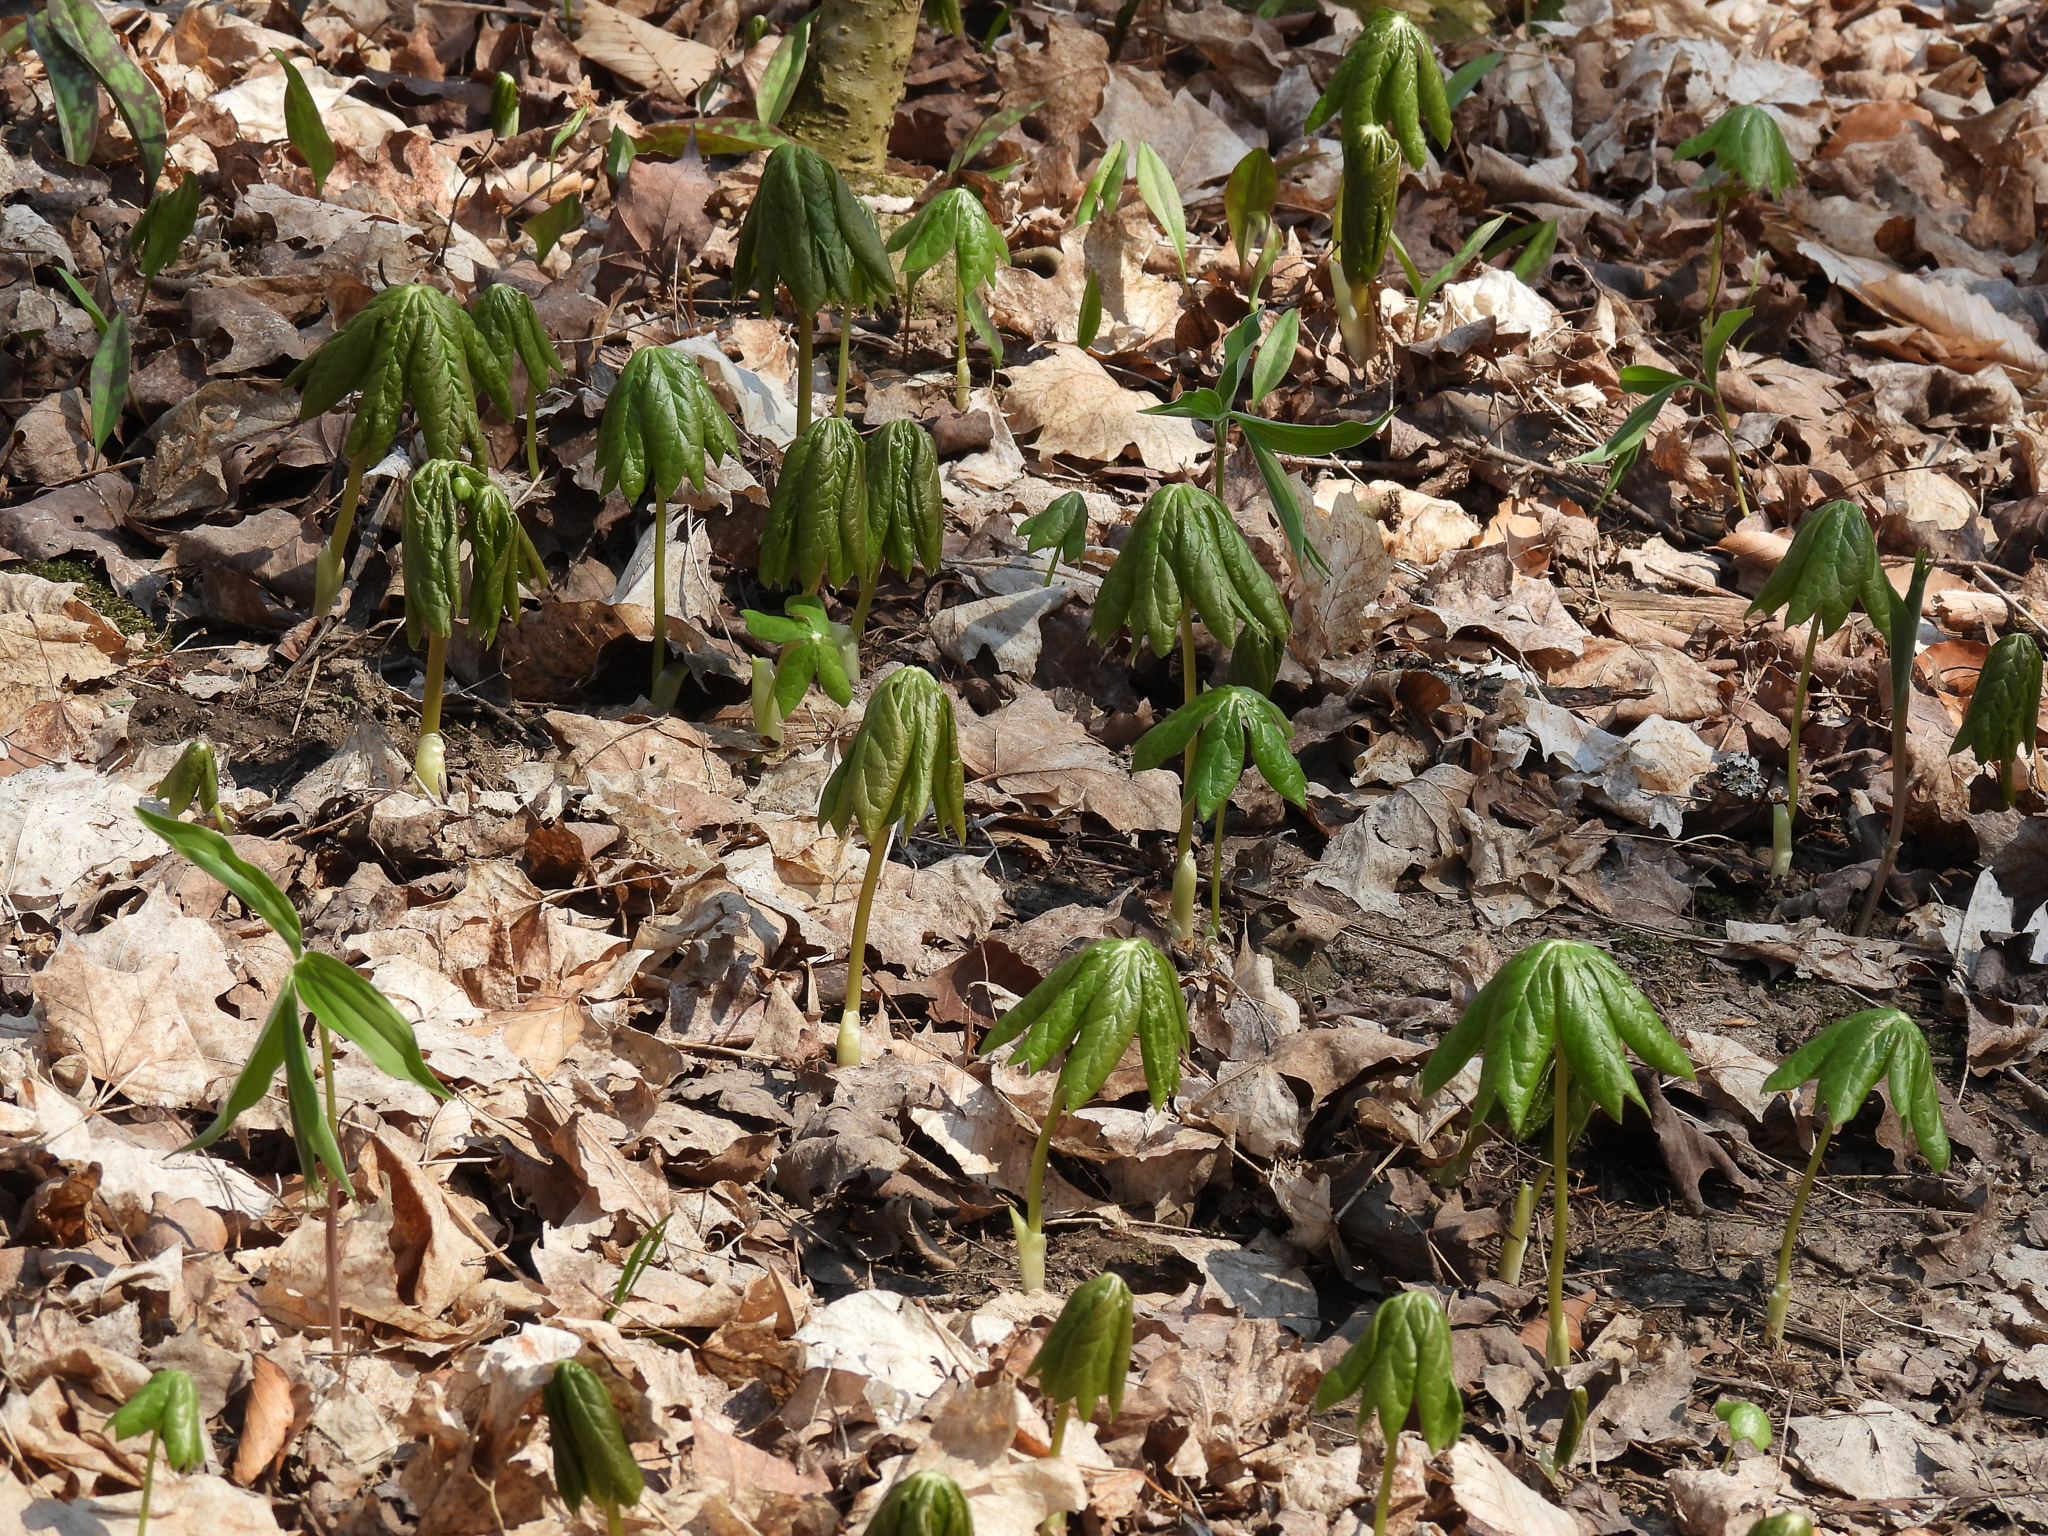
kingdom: Plantae
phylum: Tracheophyta
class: Magnoliopsida
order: Ranunculales
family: Berberidaceae
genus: Podophyllum
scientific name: Podophyllum peltatum
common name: Wild mandrake
